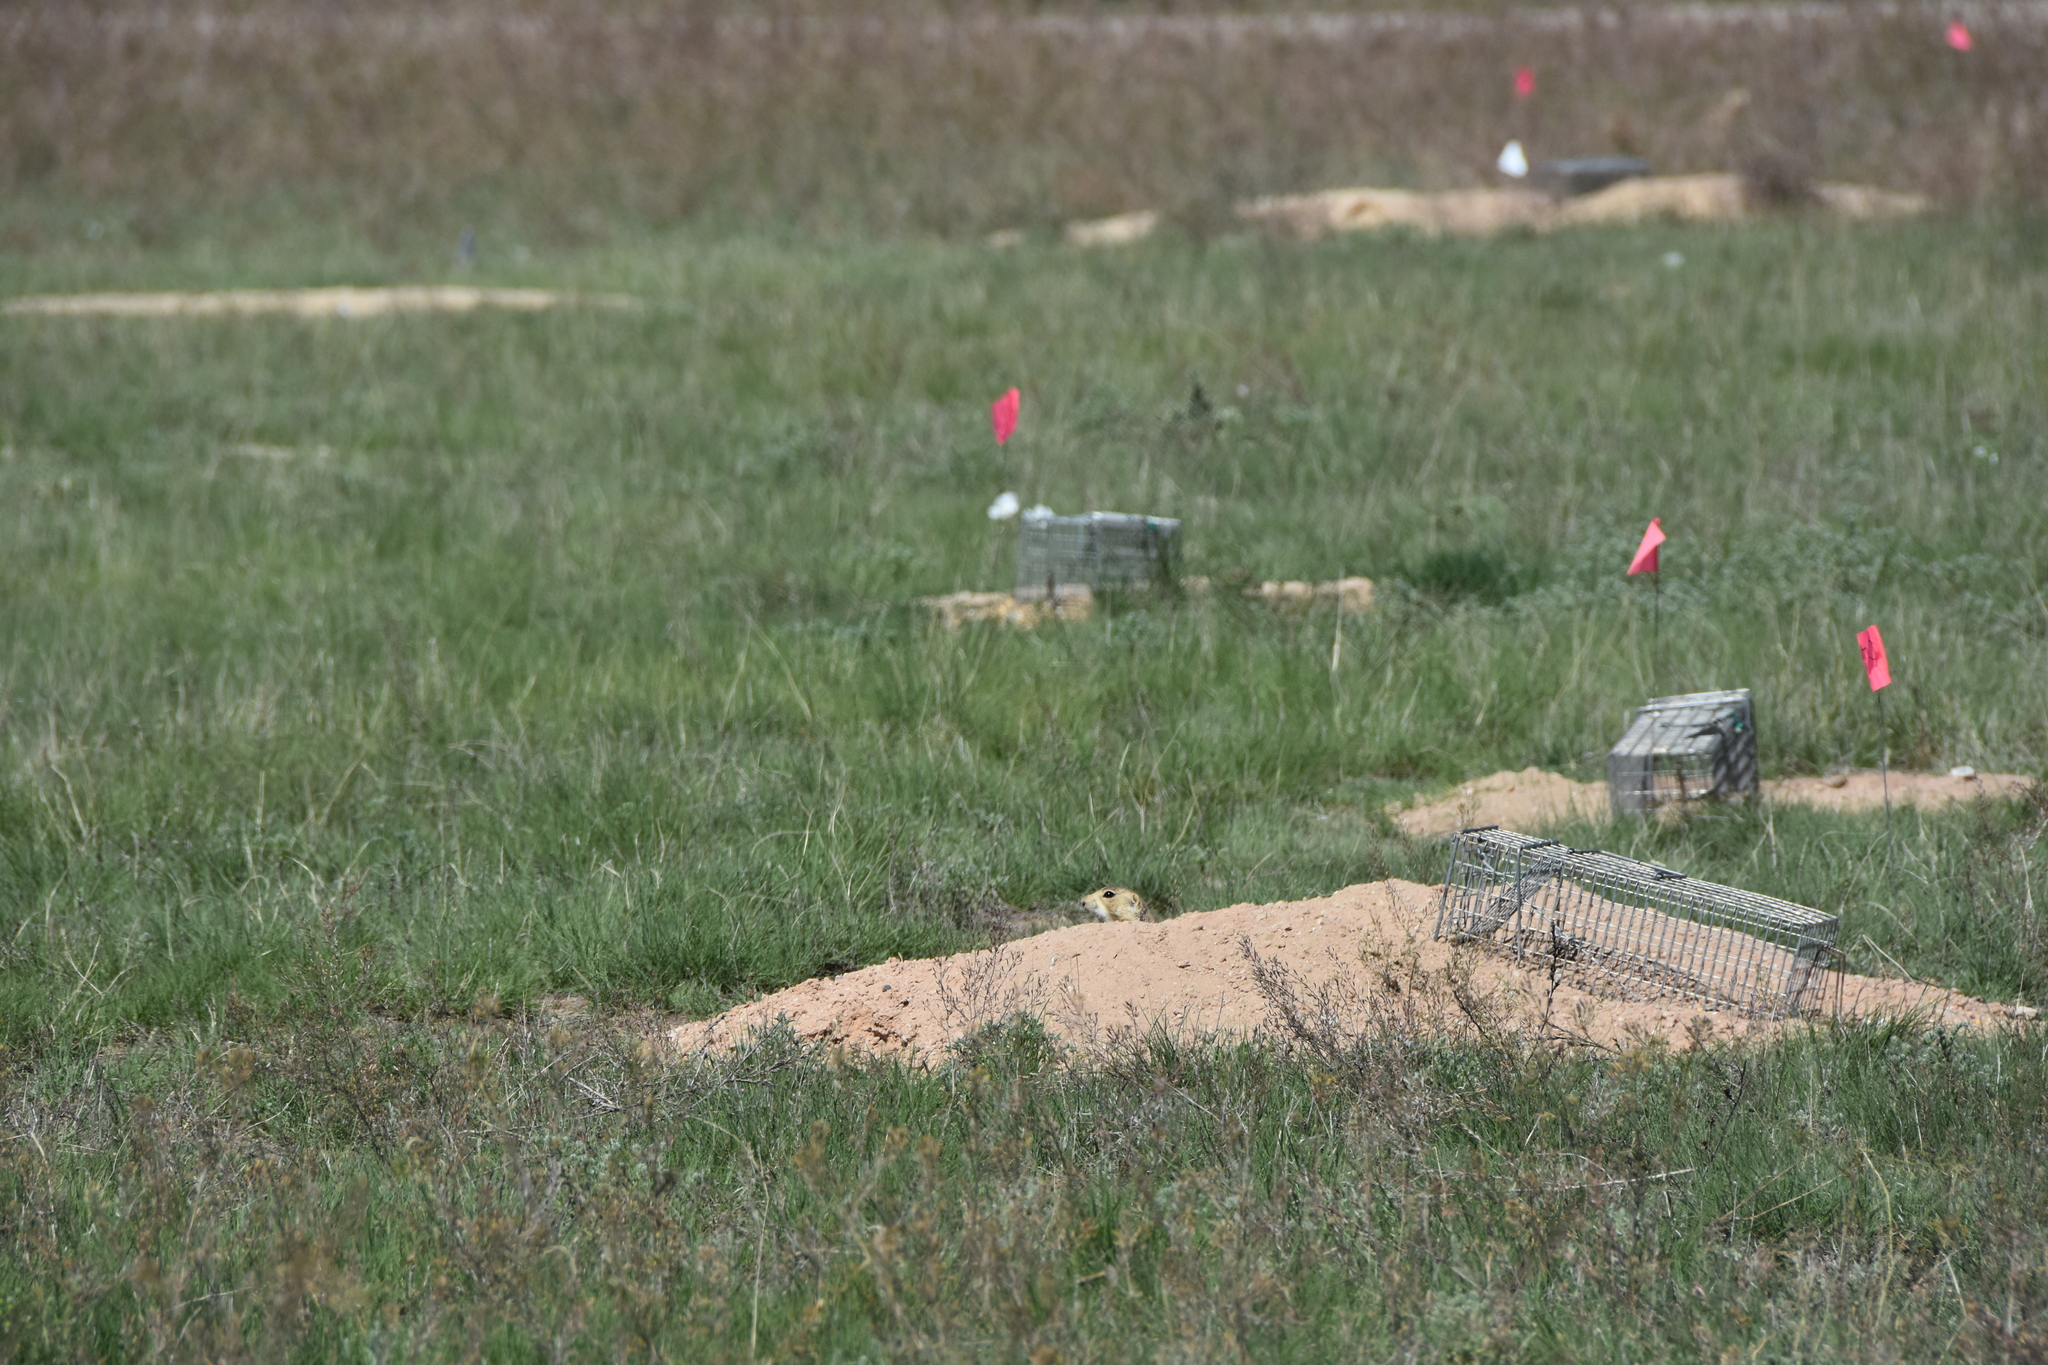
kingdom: Animalia
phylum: Chordata
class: Mammalia
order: Rodentia
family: Sciuridae
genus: Cynomys
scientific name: Cynomys gunnisoni
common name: Gunnison's prairie dog
